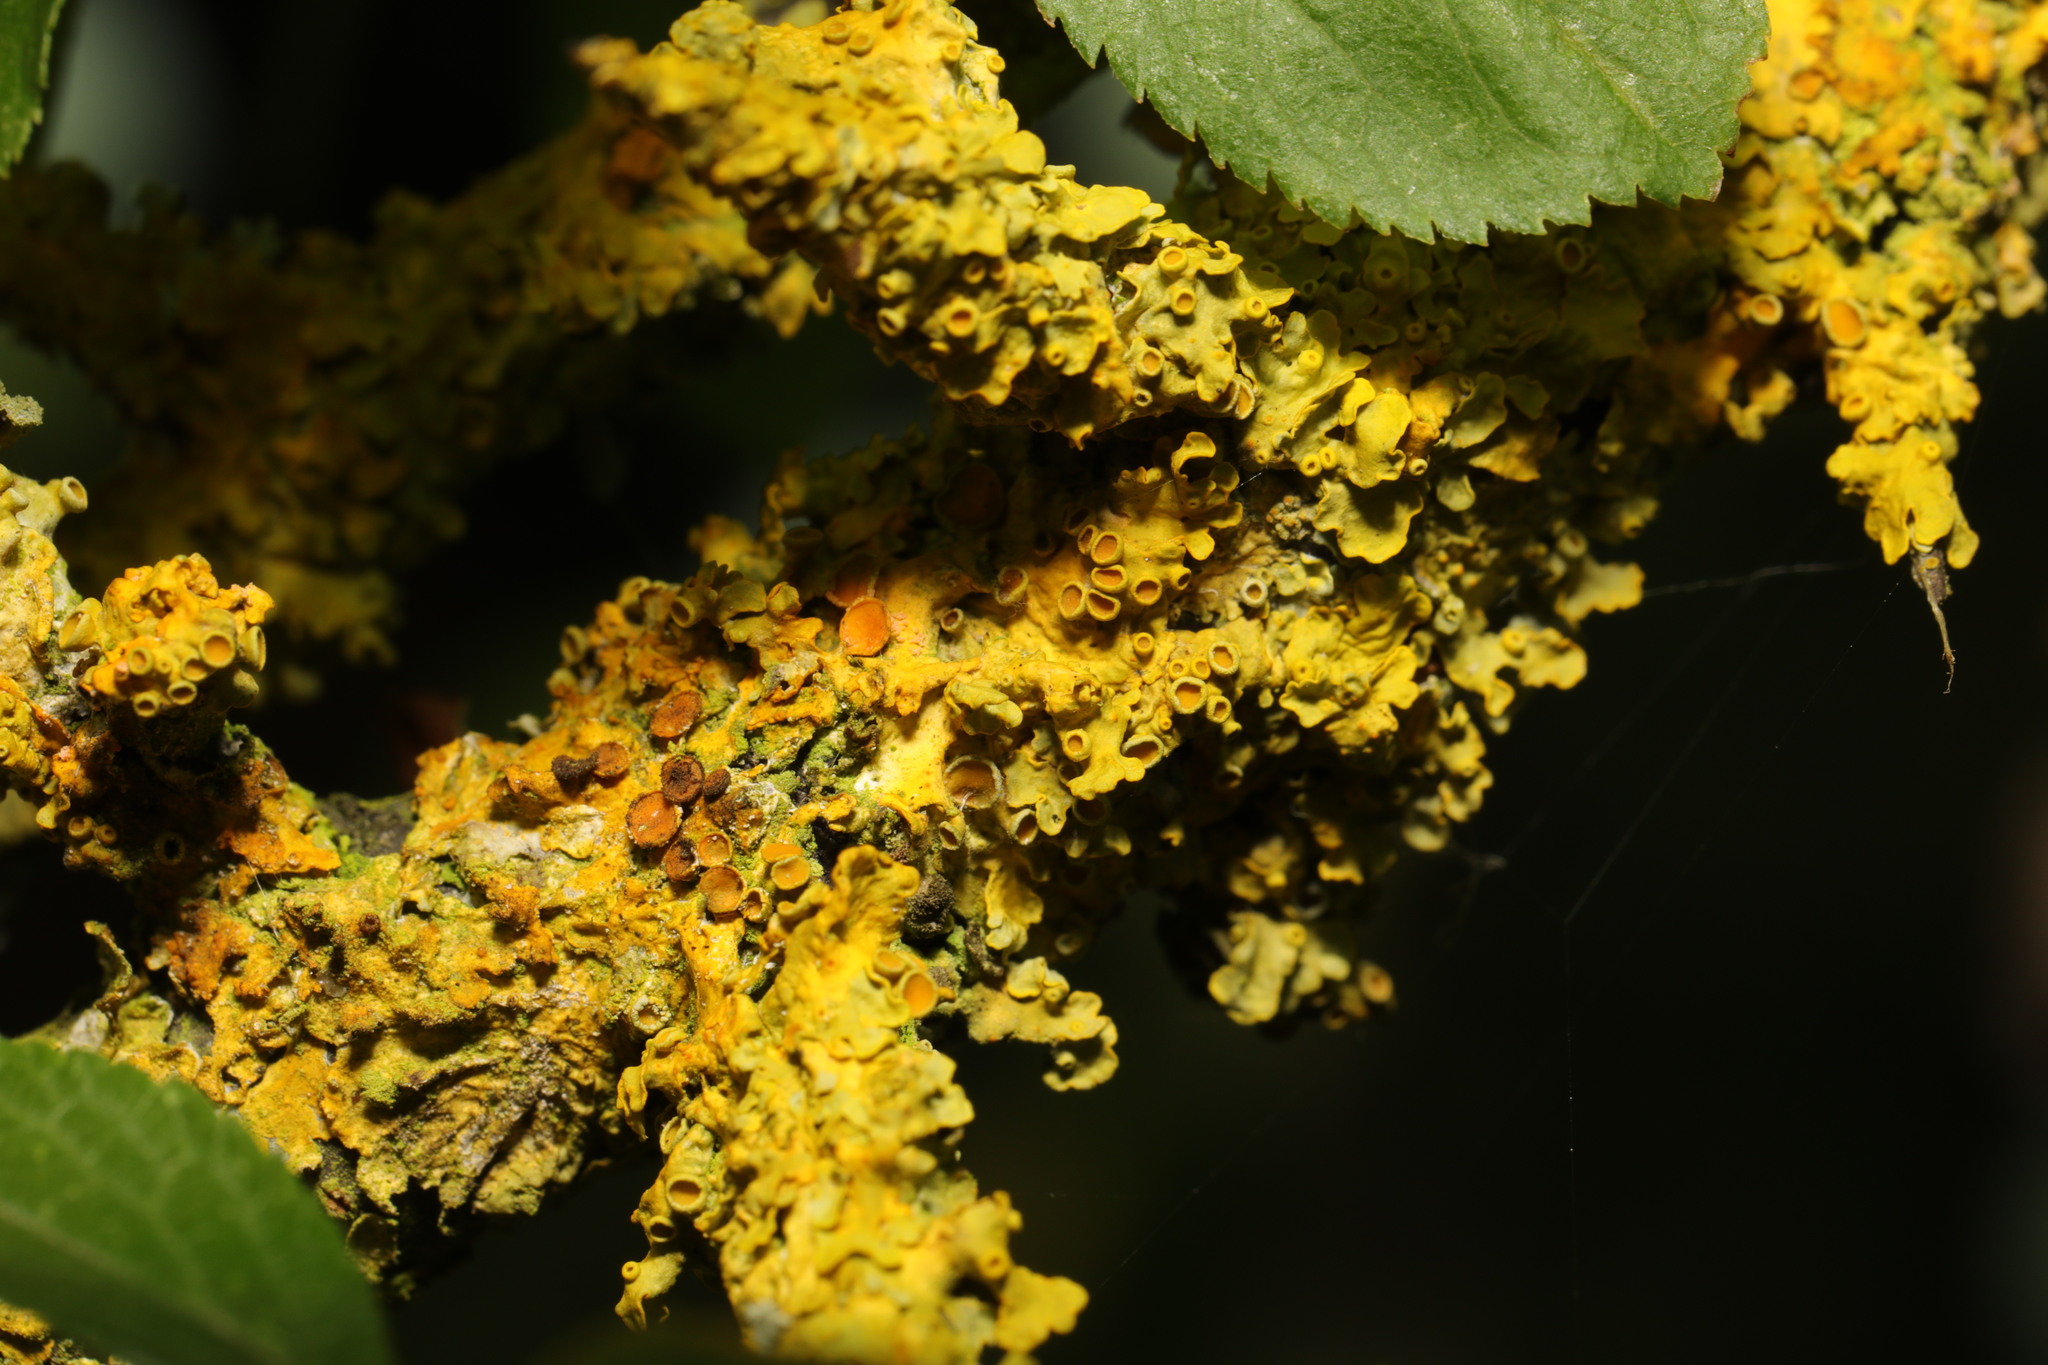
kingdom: Fungi
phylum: Ascomycota
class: Lecanoromycetes
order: Teloschistales
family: Teloschistaceae
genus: Xanthoria
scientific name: Xanthoria parietina
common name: Common orange lichen
